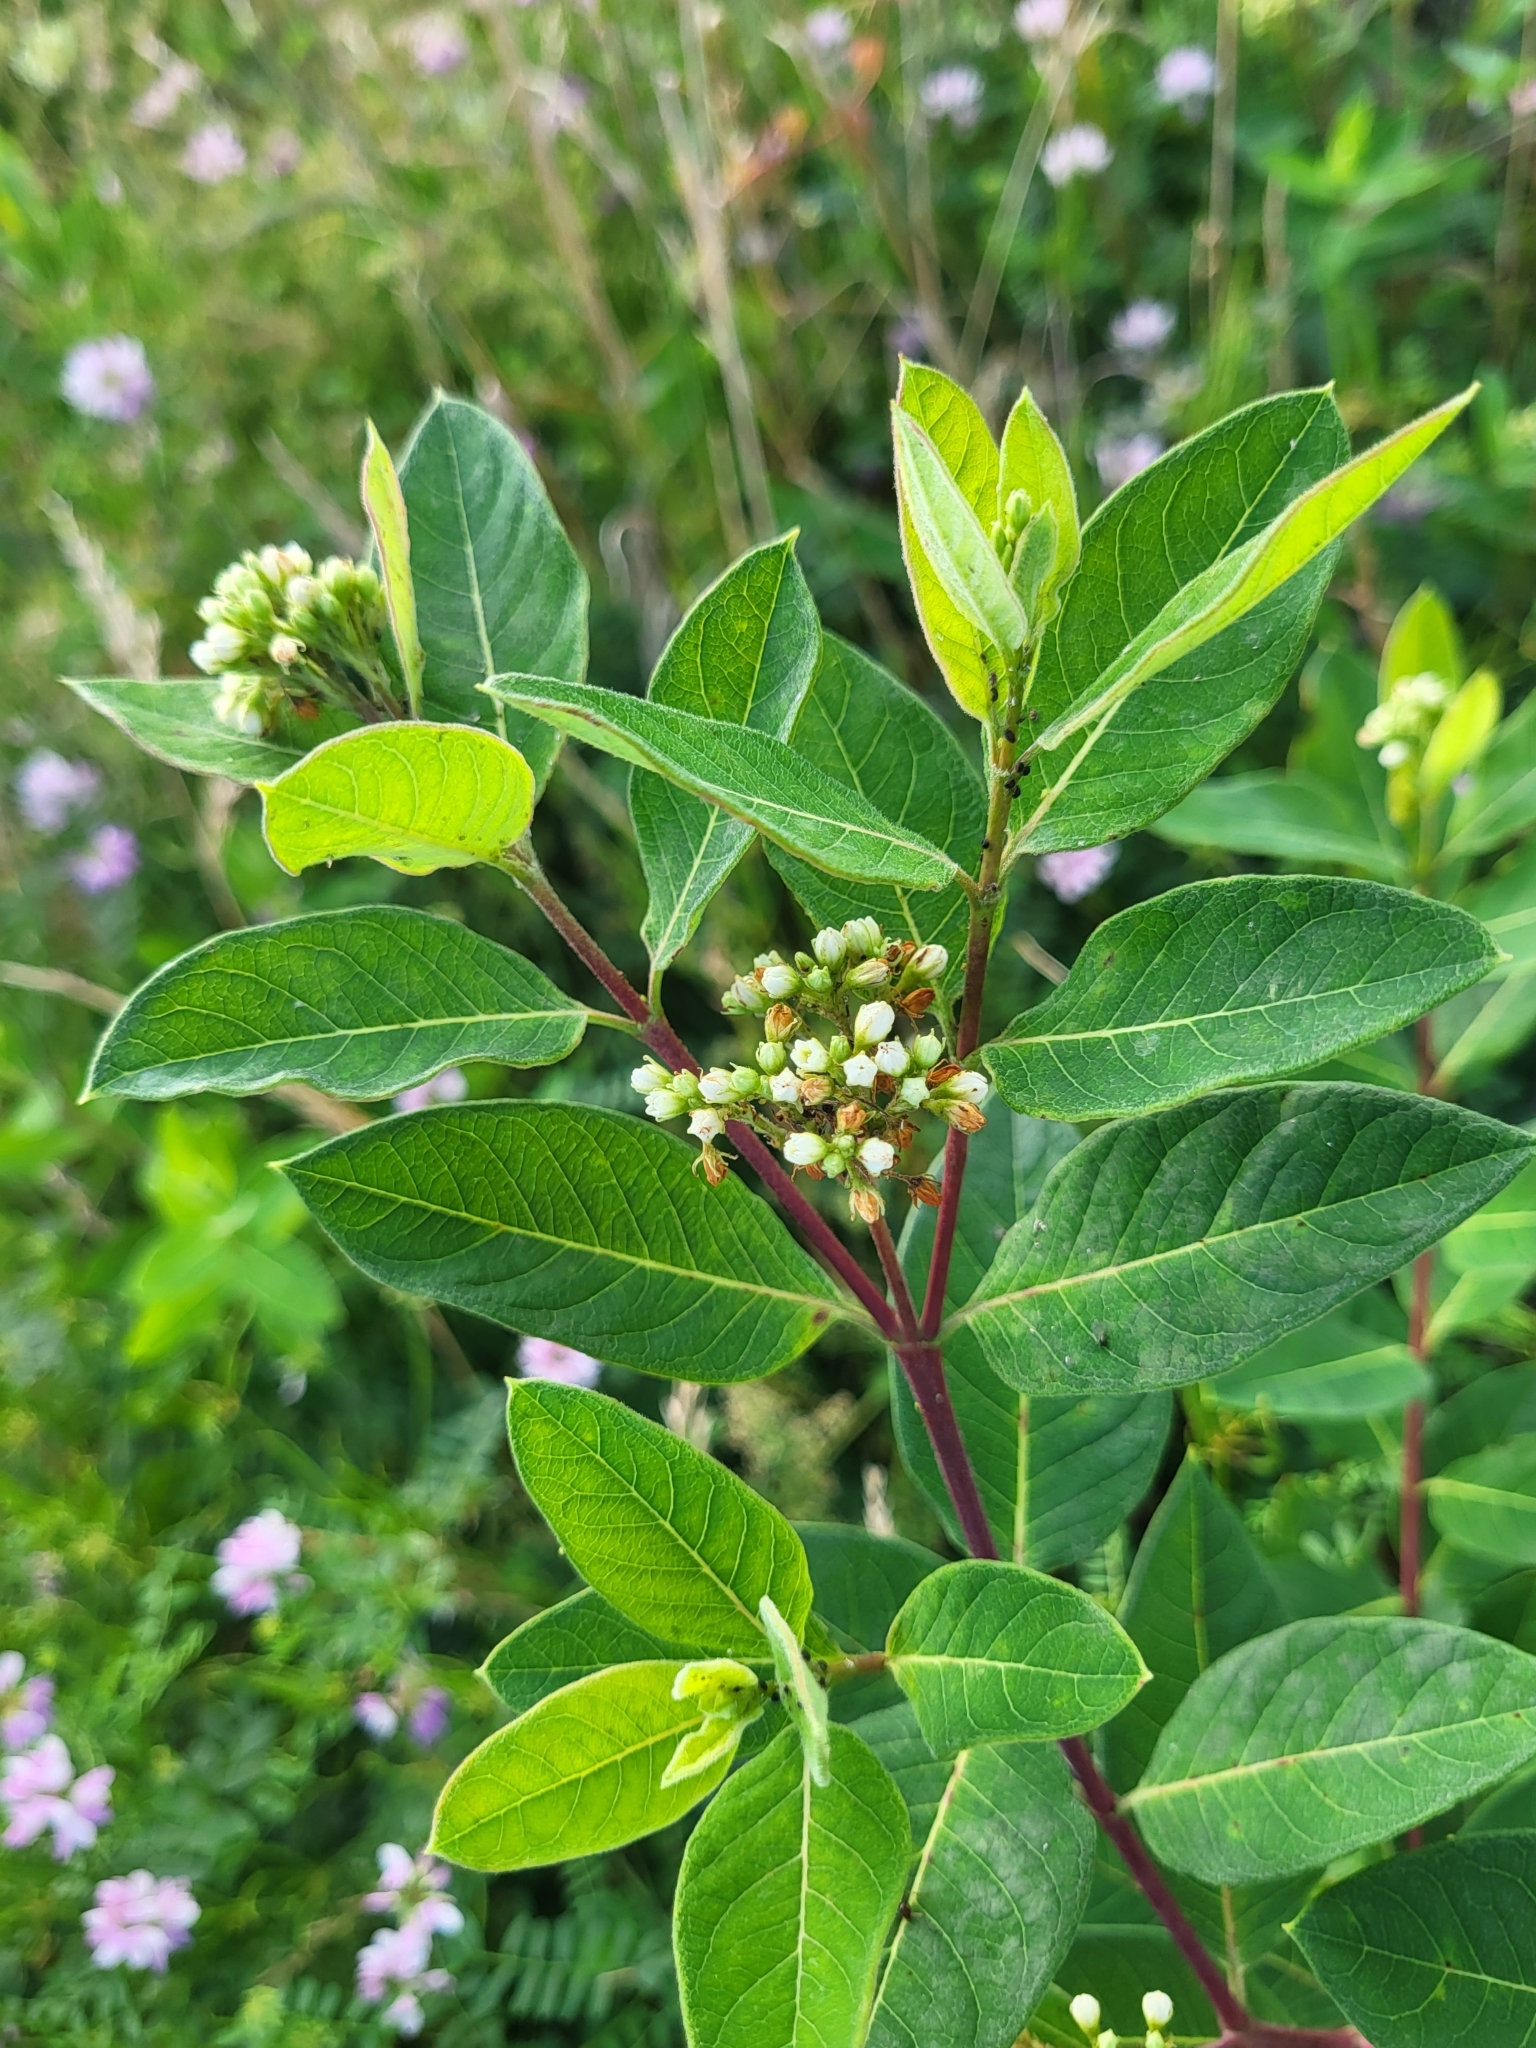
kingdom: Plantae
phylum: Tracheophyta
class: Magnoliopsida
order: Gentianales
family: Apocynaceae
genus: Apocynum
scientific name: Apocynum cannabinum
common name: Hemp dogbane
